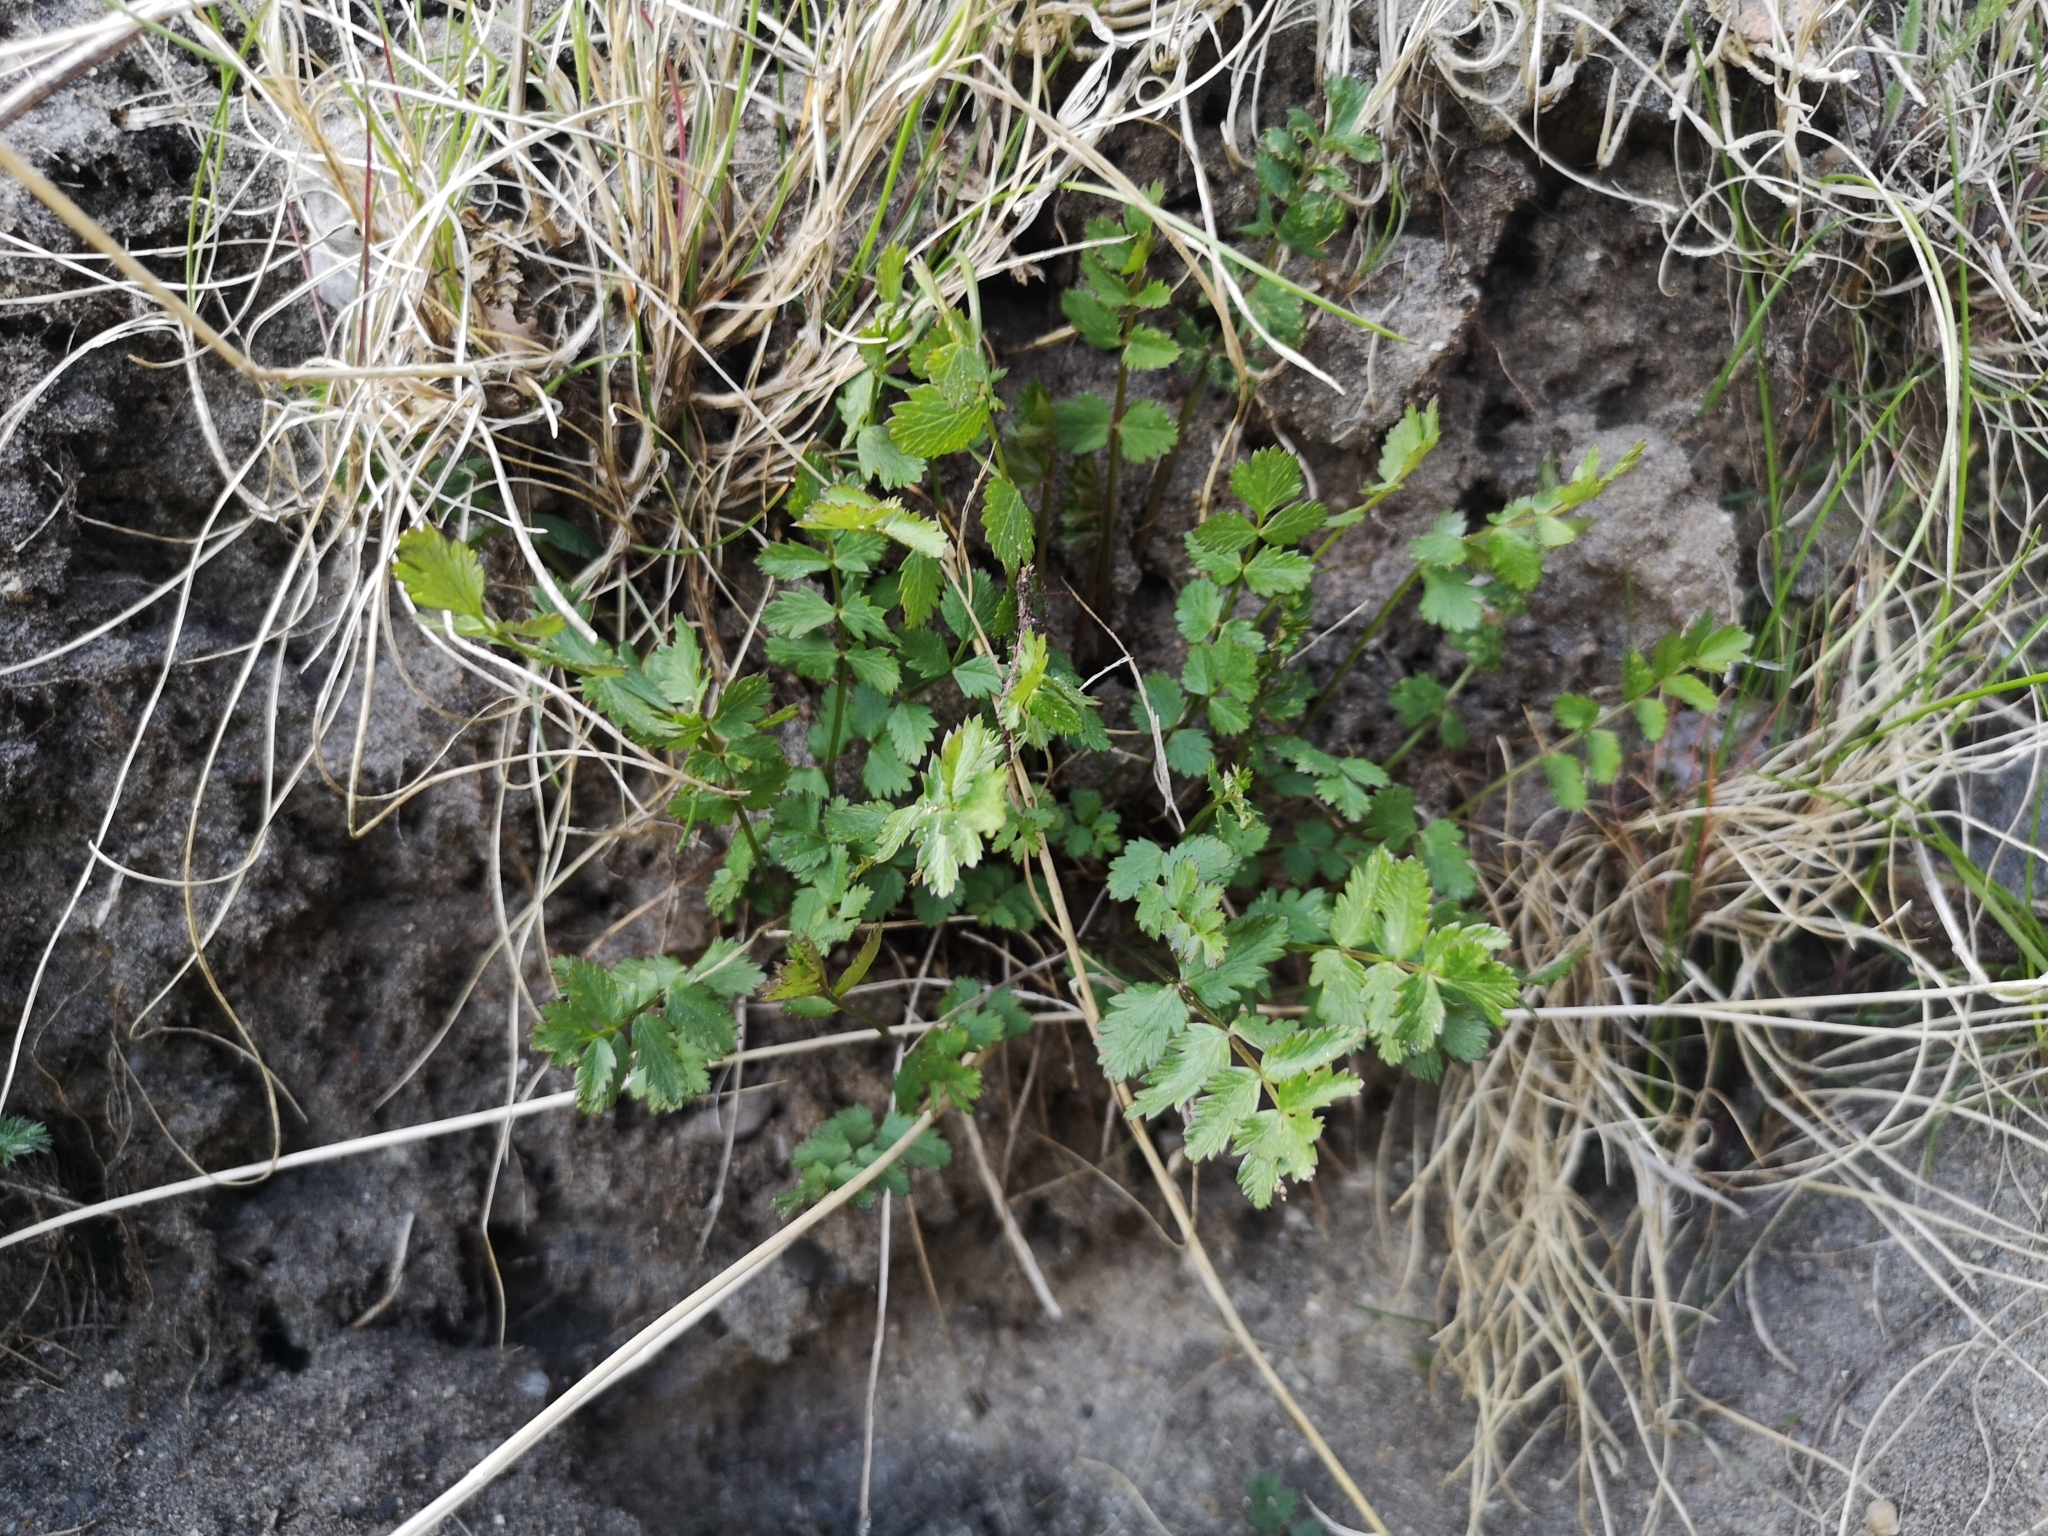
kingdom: Plantae
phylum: Tracheophyta
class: Magnoliopsida
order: Apiales
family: Apiaceae
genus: Pimpinella
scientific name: Pimpinella saxifraga
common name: Burnet-saxifrage
